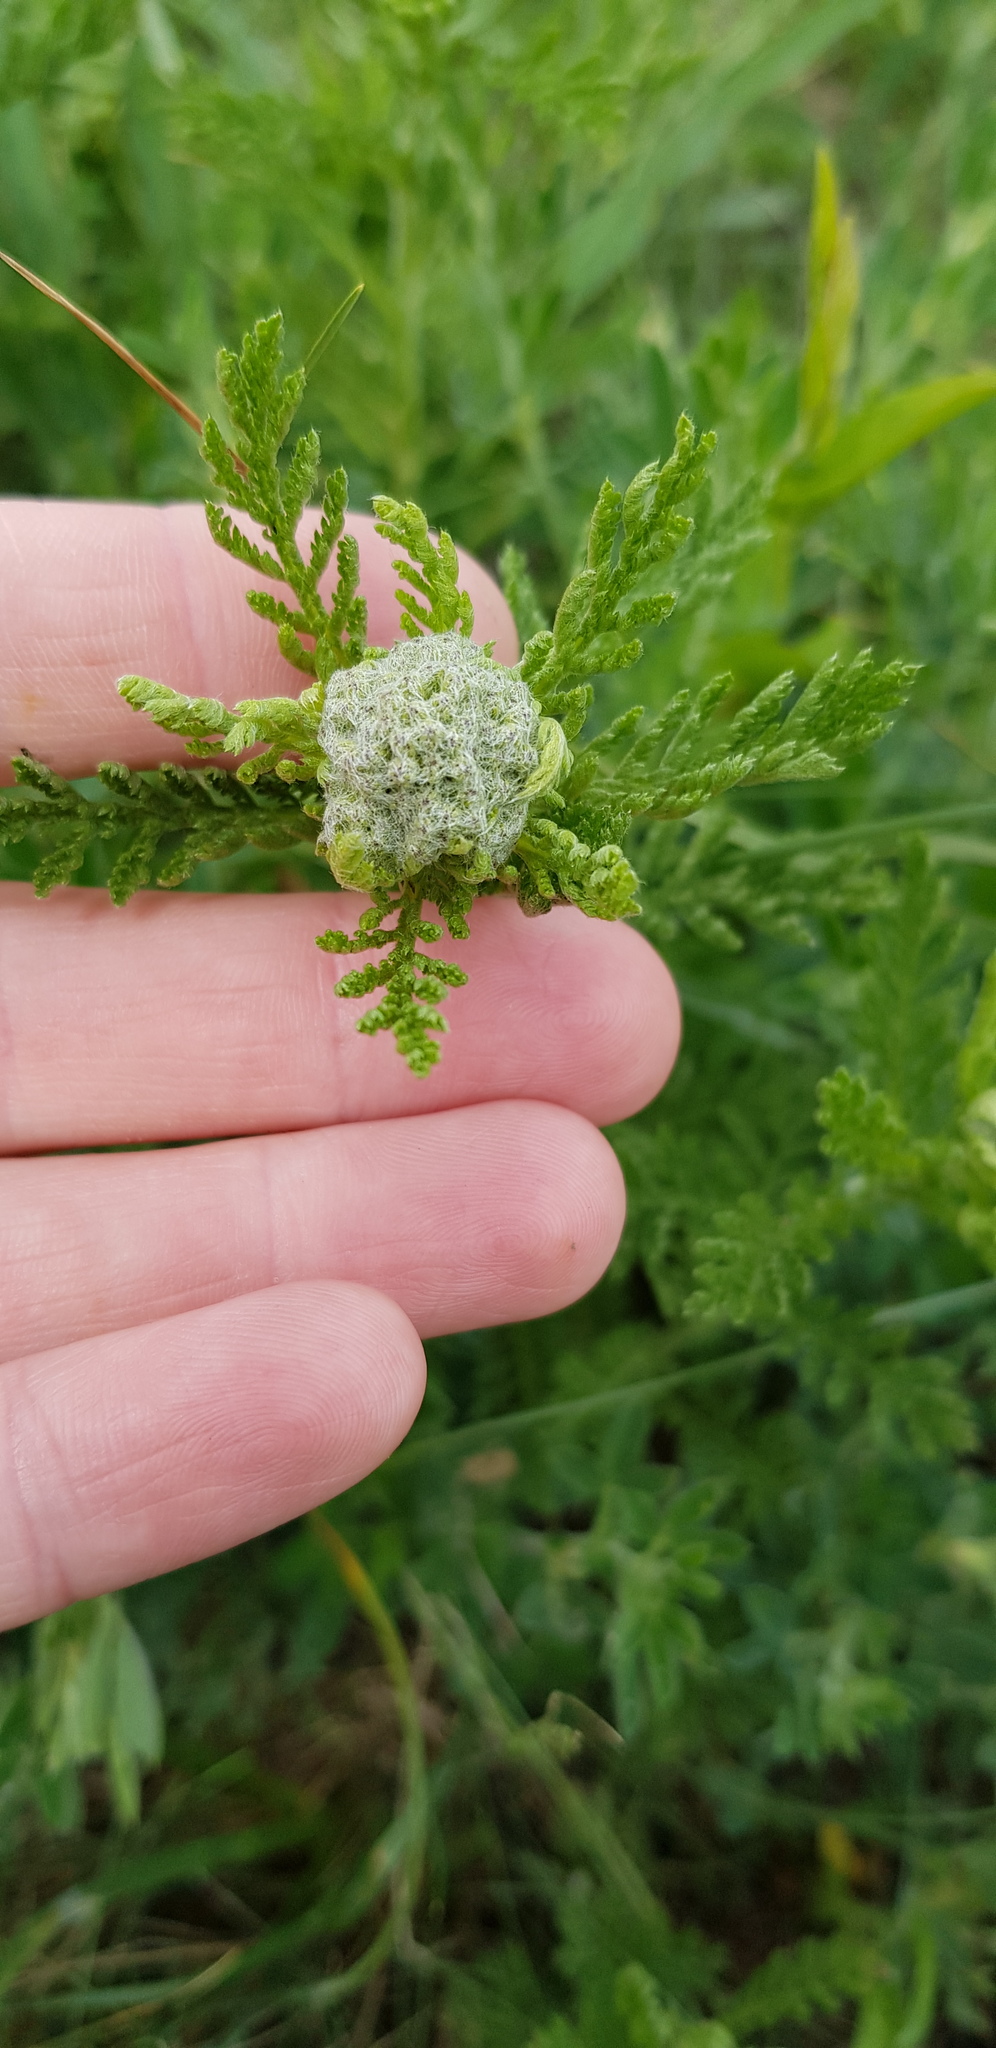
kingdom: Plantae
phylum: Tracheophyta
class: Magnoliopsida
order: Asterales
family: Asteraceae
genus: Achillea
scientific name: Achillea nobilis
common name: Noble yarrow
